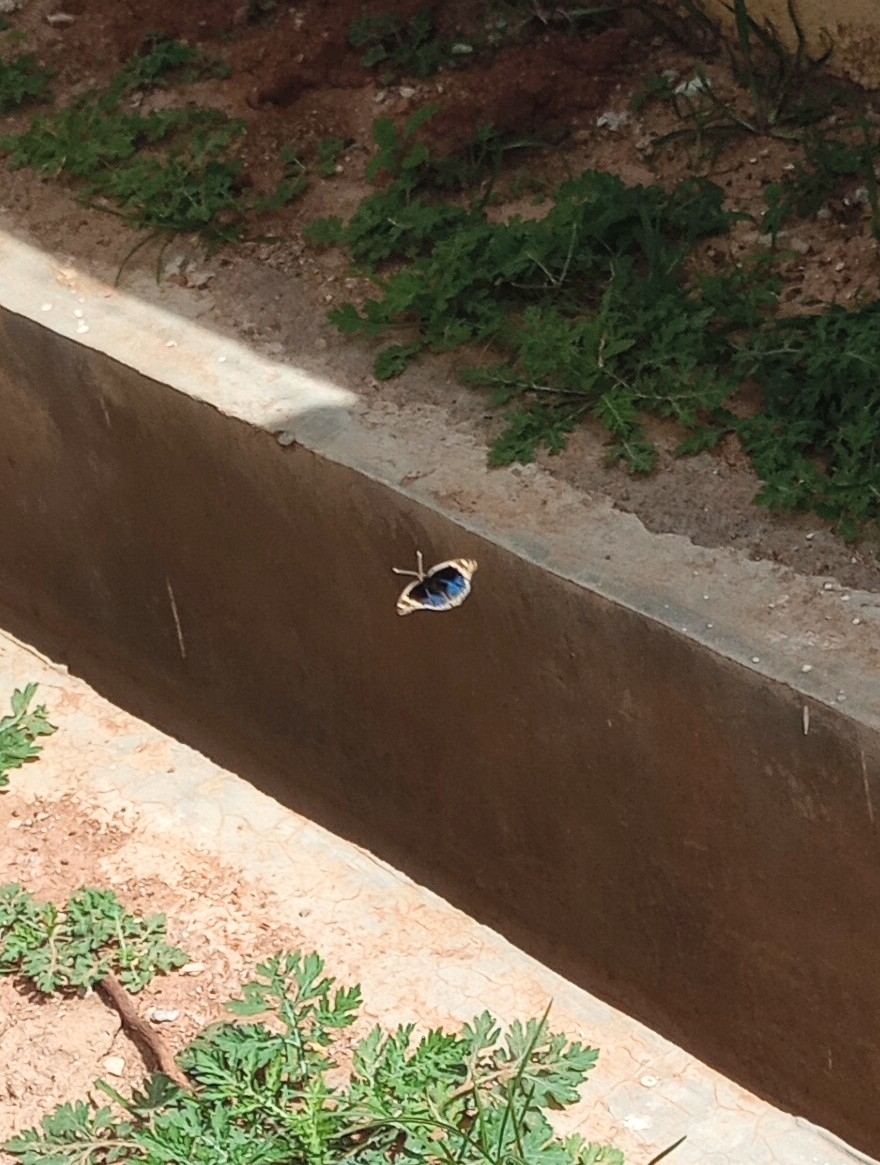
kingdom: Animalia
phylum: Arthropoda
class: Insecta
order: Lepidoptera
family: Nymphalidae
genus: Junonia
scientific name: Junonia orithya
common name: Blue pansy
